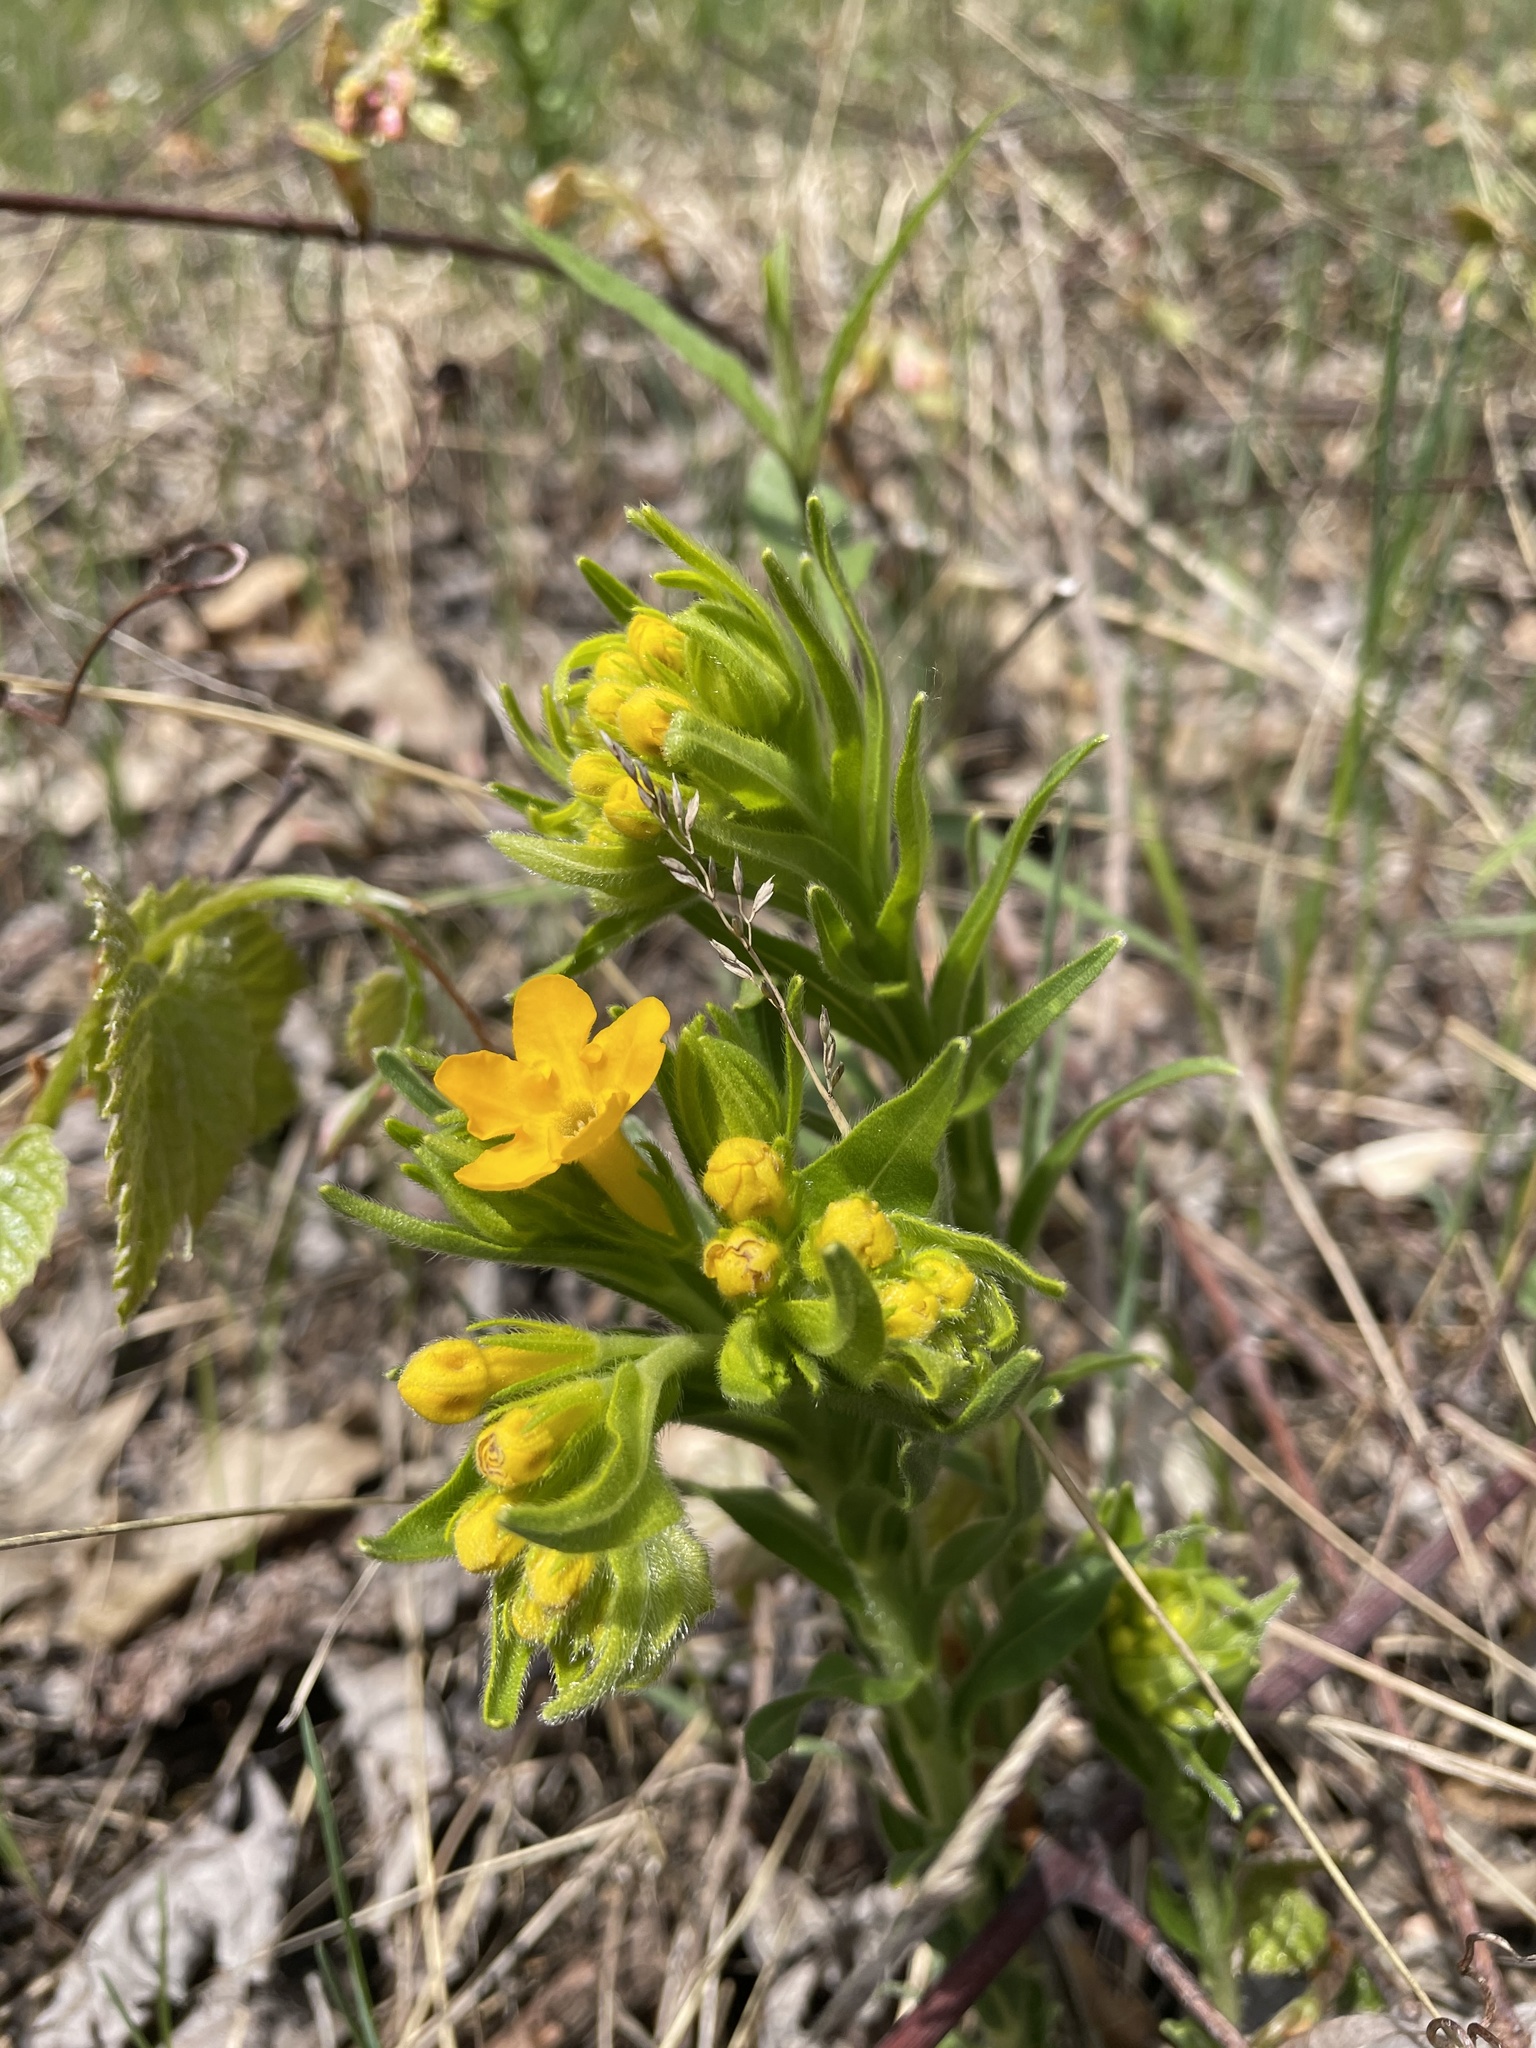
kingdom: Plantae
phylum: Tracheophyta
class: Magnoliopsida
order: Boraginales
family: Boraginaceae
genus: Lithospermum
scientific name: Lithospermum caroliniense
